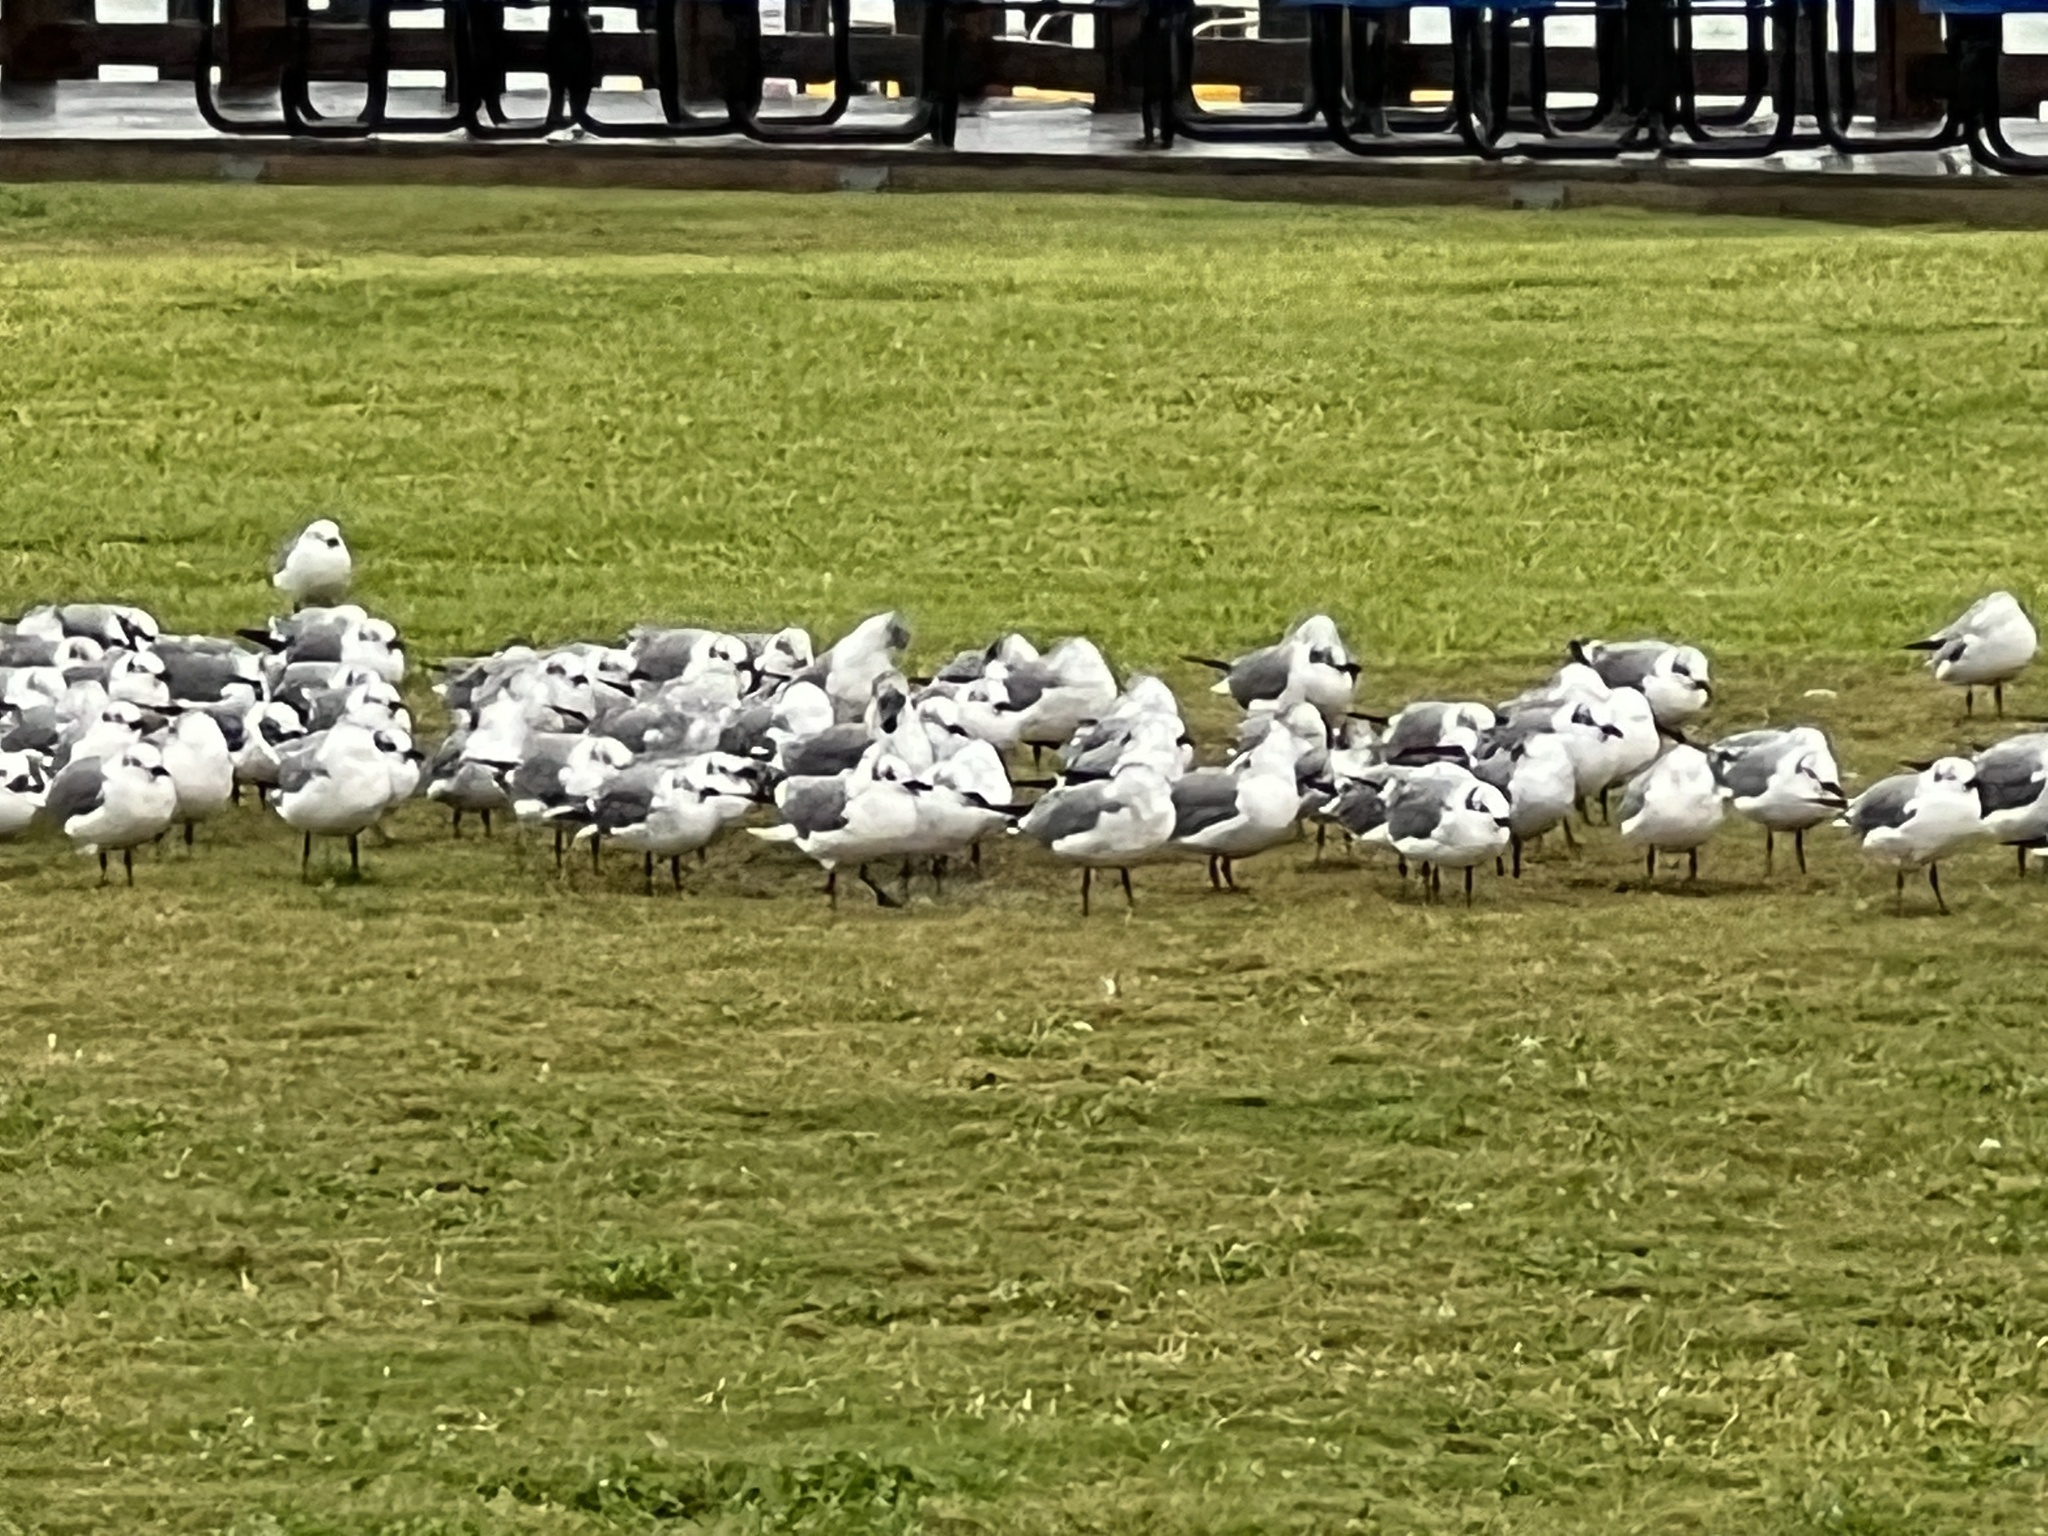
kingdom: Animalia
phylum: Chordata
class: Aves
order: Charadriiformes
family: Laridae
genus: Leucophaeus
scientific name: Leucophaeus atricilla
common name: Laughing gull
